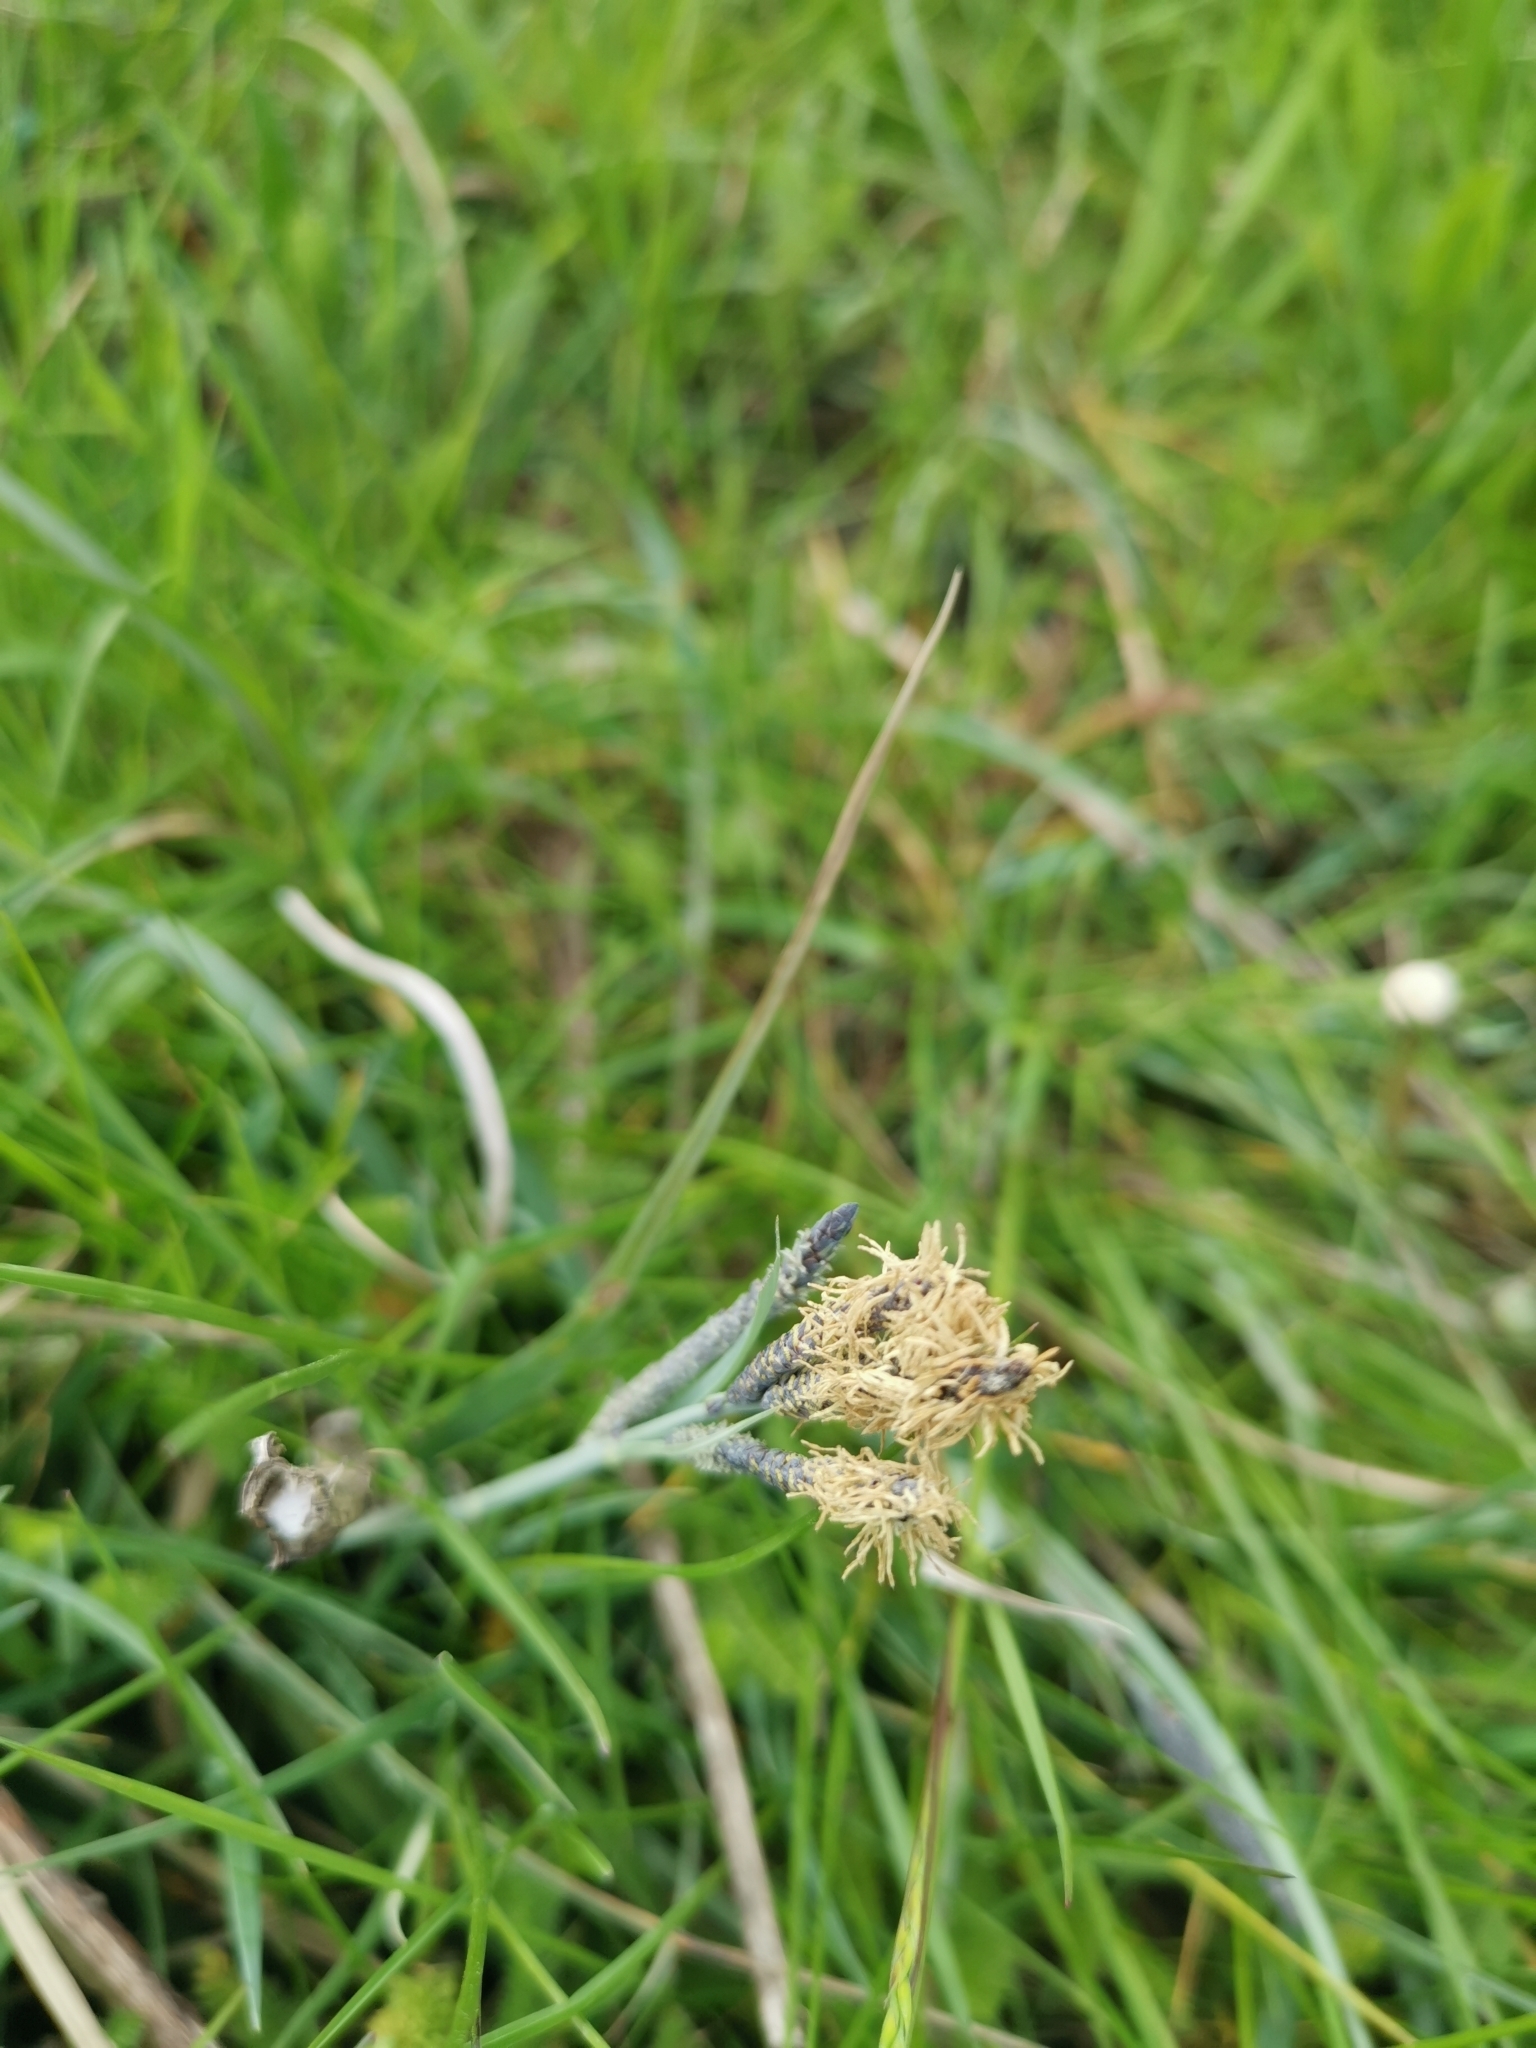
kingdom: Plantae
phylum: Tracheophyta
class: Liliopsida
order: Poales
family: Cyperaceae
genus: Carex
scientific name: Carex flacca
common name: Glaucous sedge
